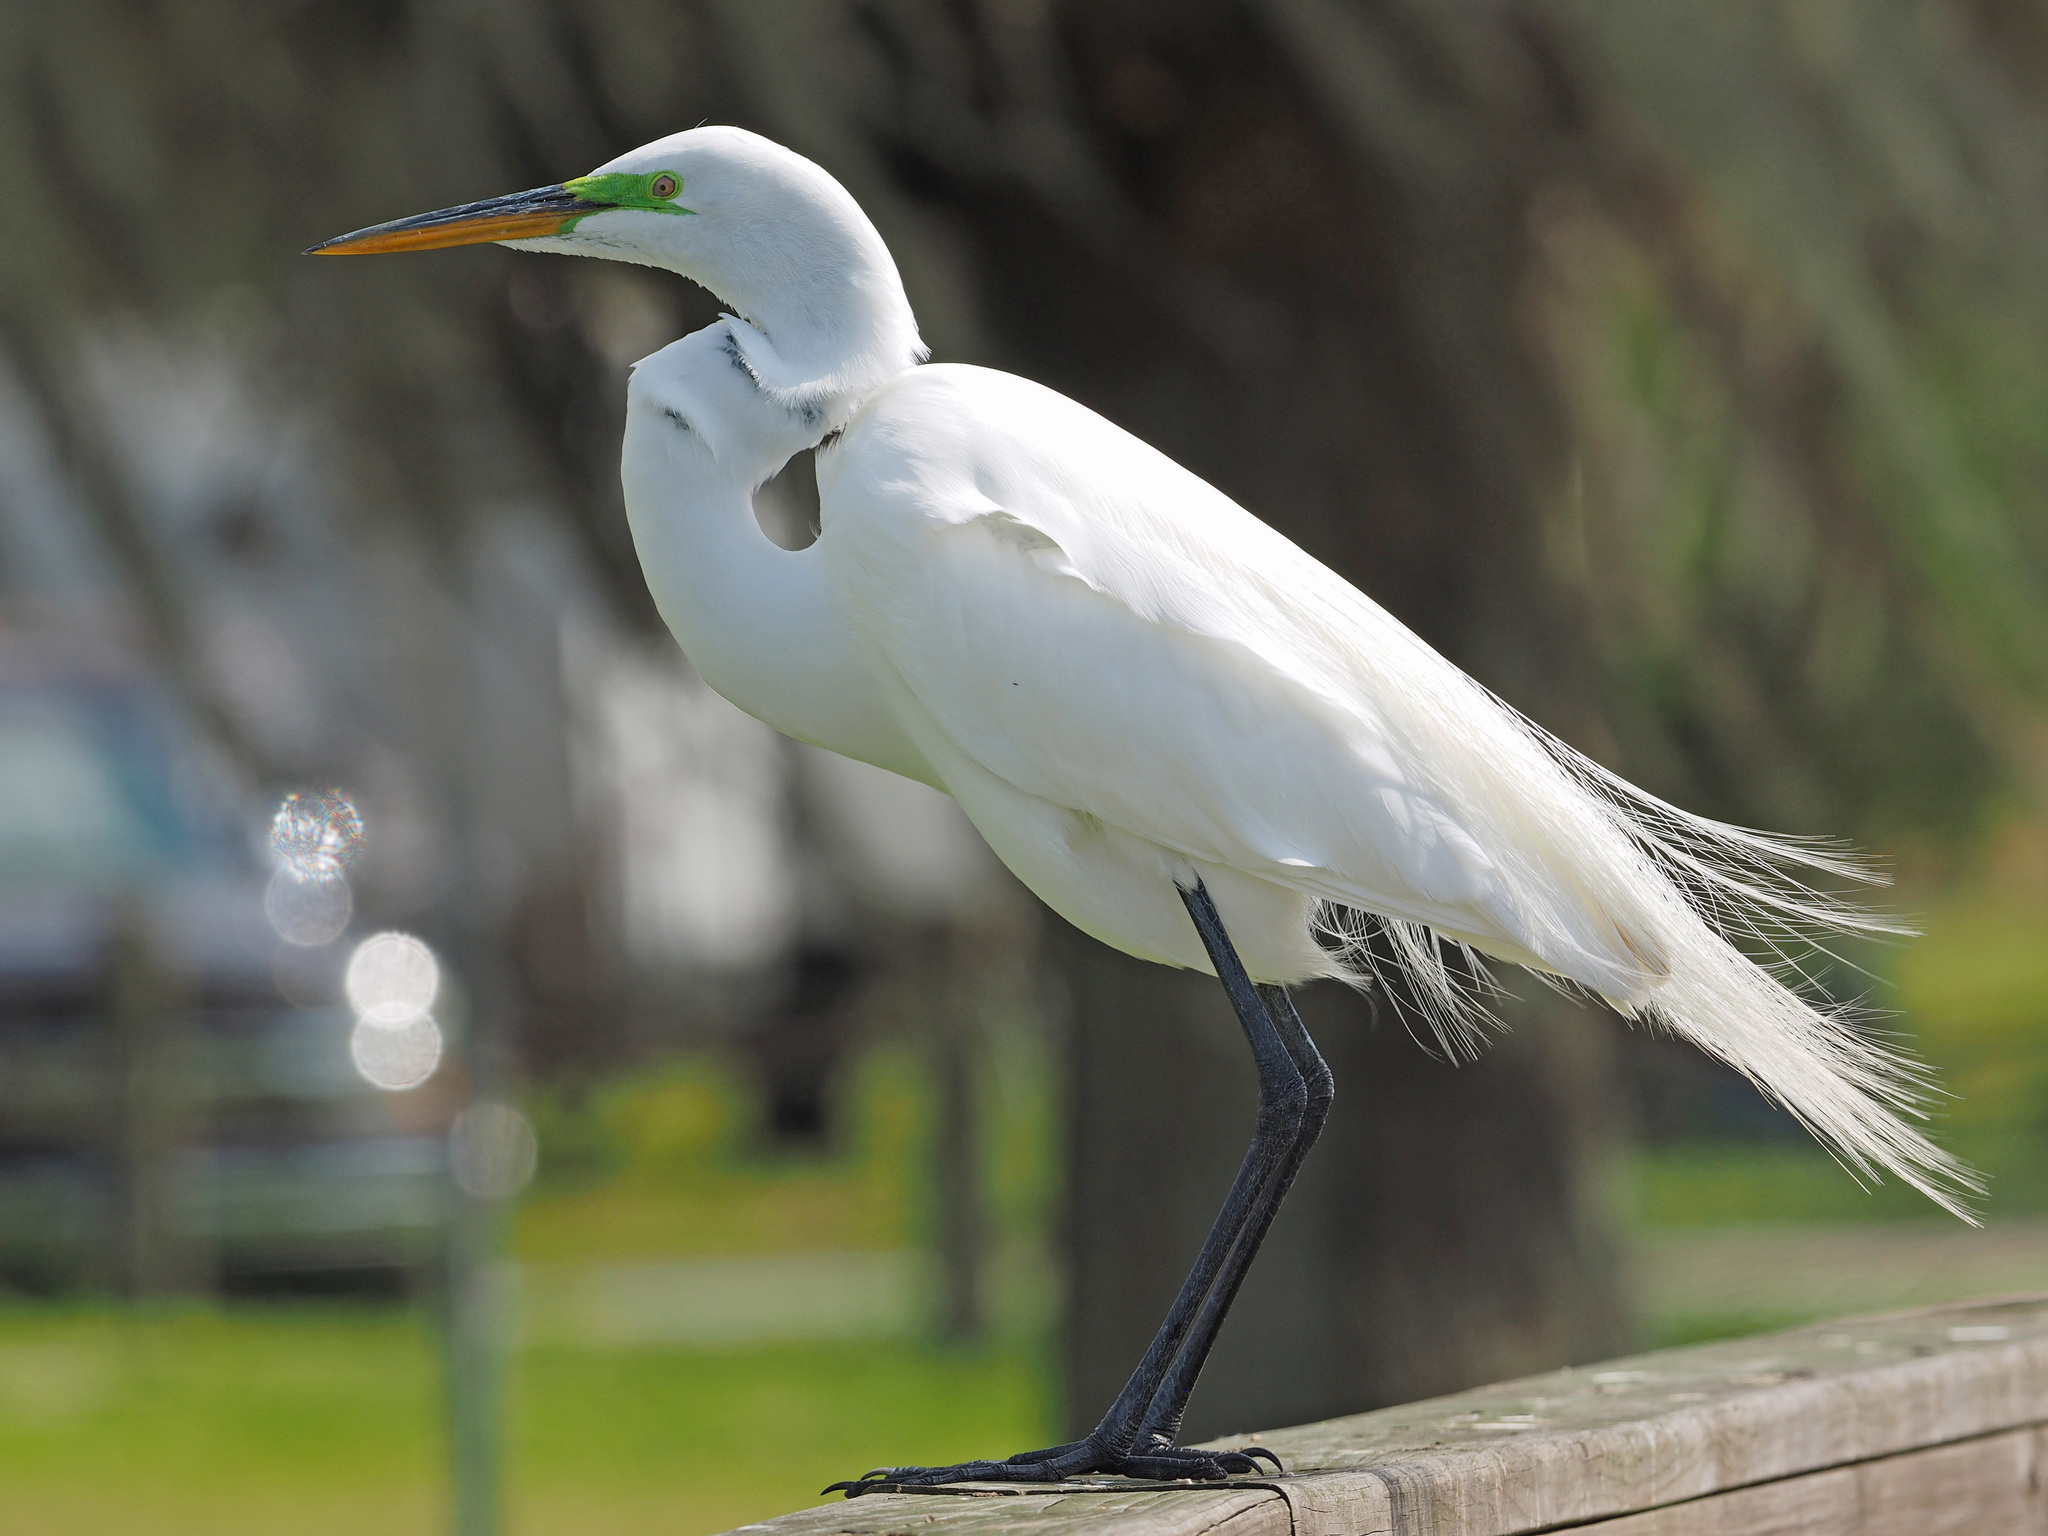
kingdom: Animalia
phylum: Chordata
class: Aves
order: Pelecaniformes
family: Ardeidae
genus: Ardea
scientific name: Ardea alba
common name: Great egret
